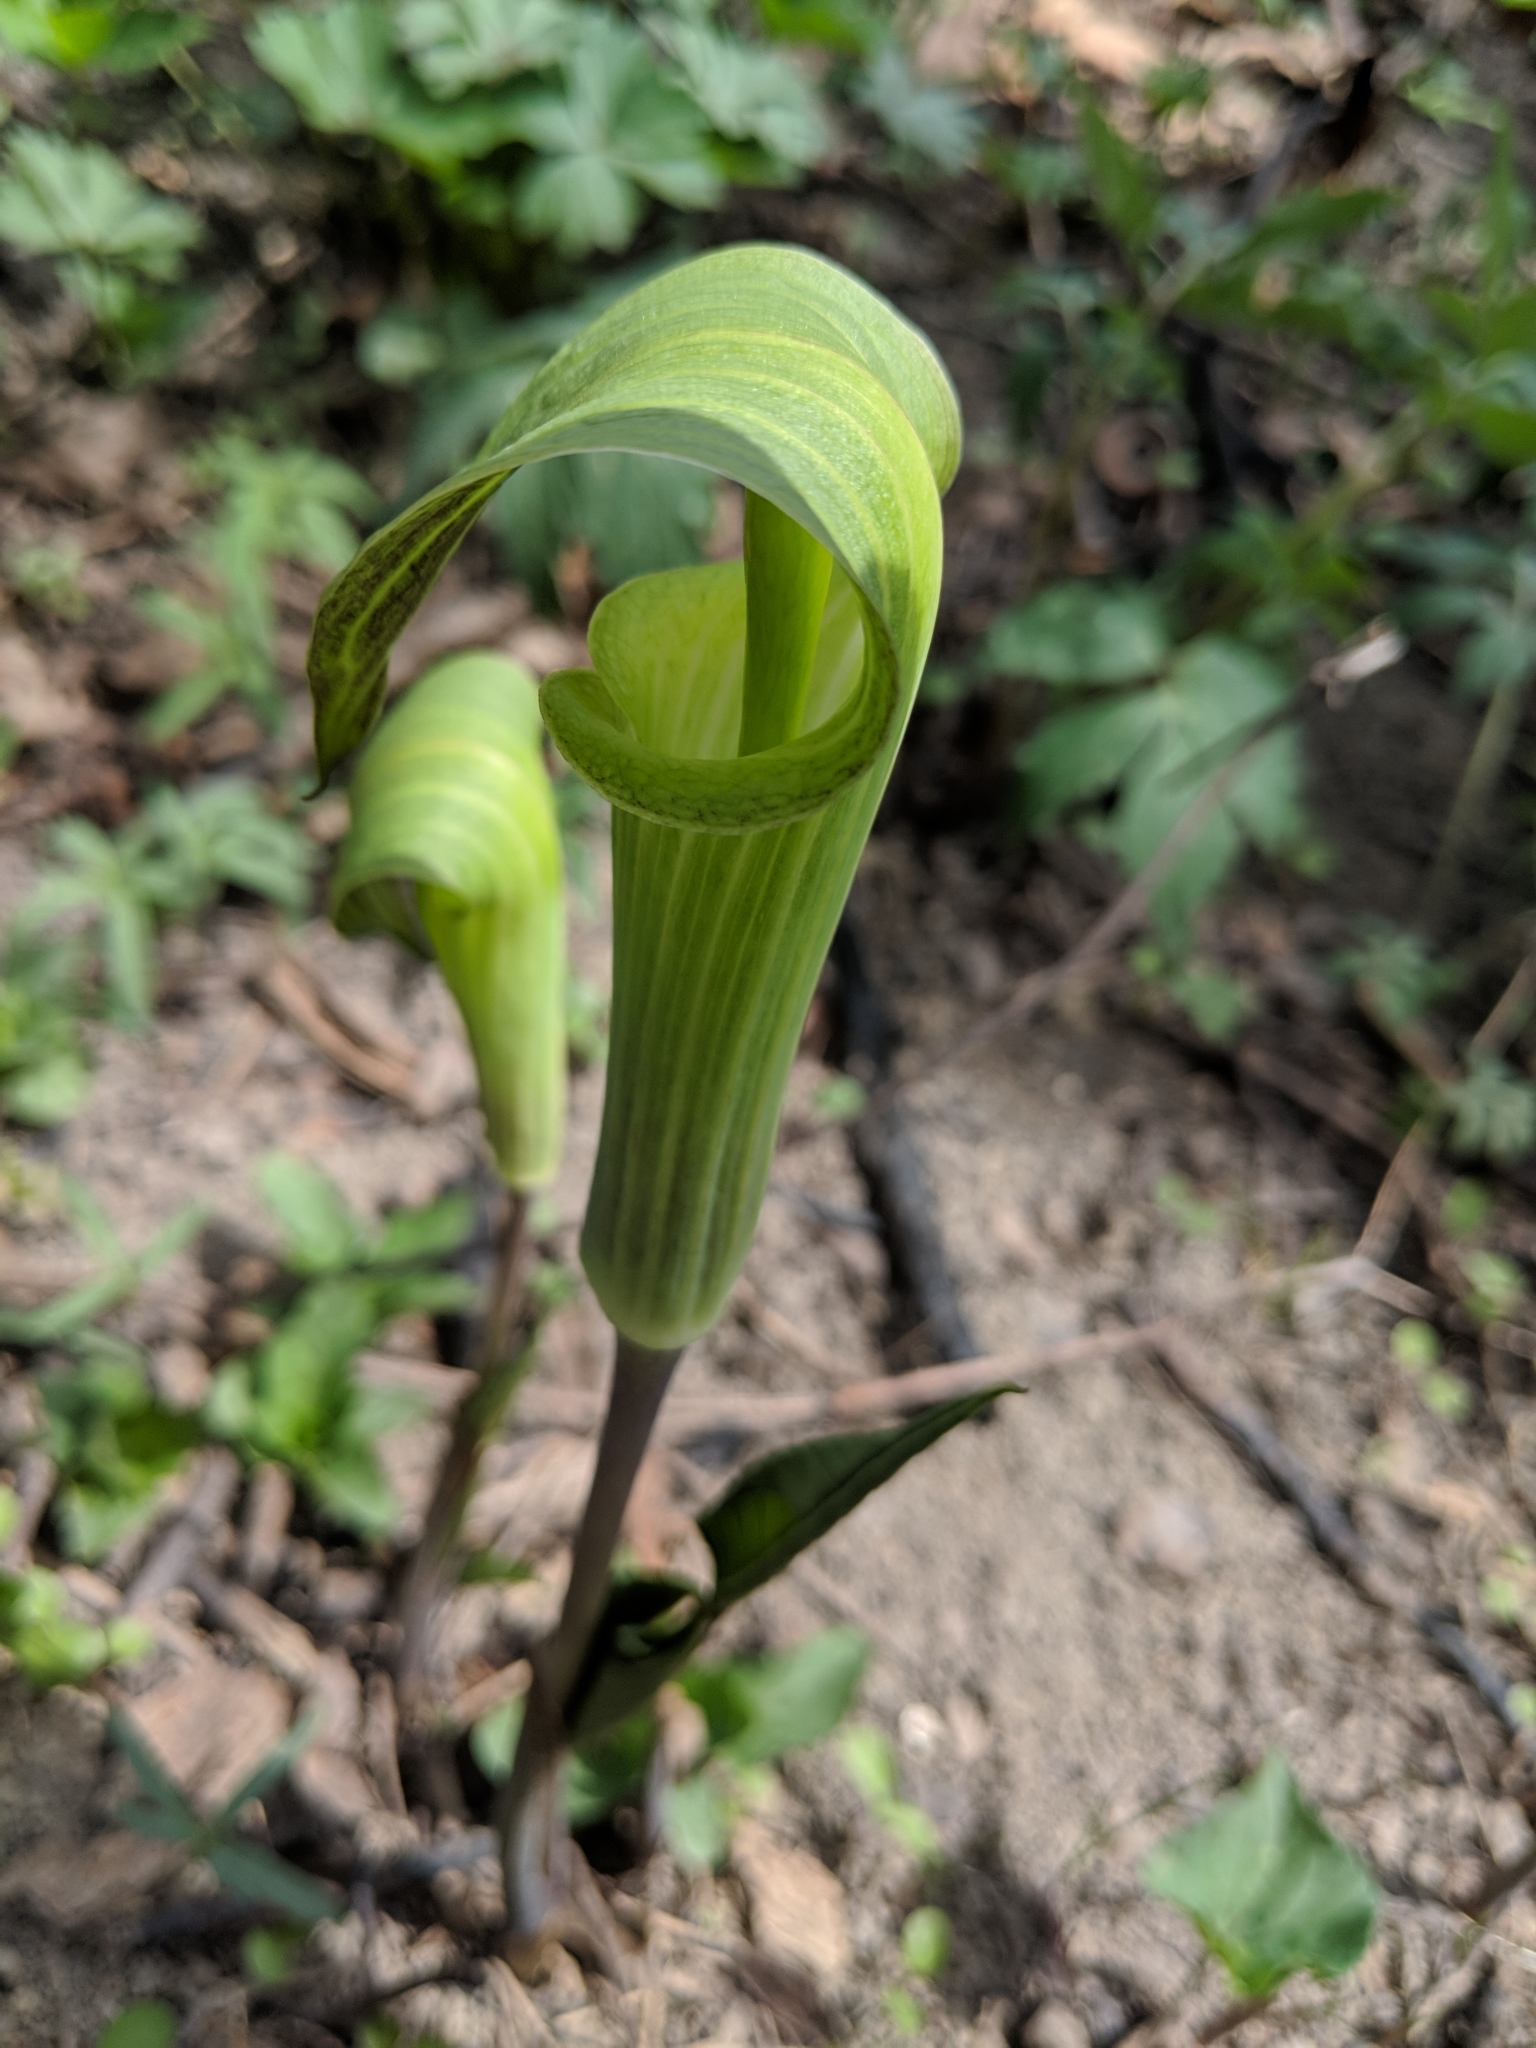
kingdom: Plantae
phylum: Tracheophyta
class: Liliopsida
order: Alismatales
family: Araceae
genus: Arisaema
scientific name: Arisaema triphyllum
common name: Jack-in-the-pulpit
